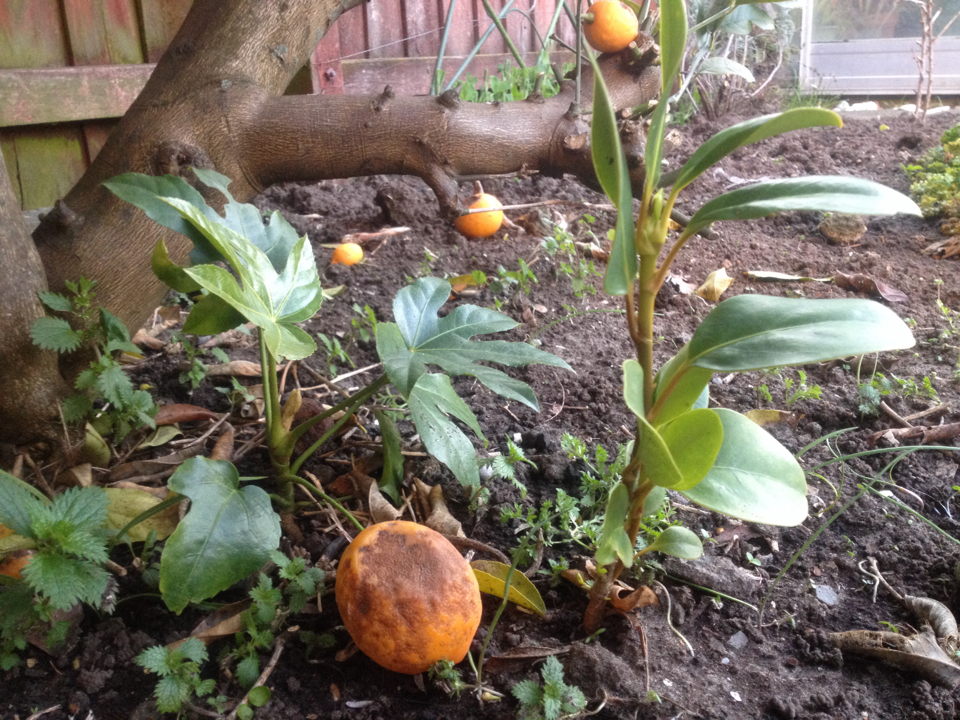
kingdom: Plantae
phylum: Tracheophyta
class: Magnoliopsida
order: Apiales
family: Araliaceae
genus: Fatsia
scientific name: Fatsia japonica
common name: Fatsia
